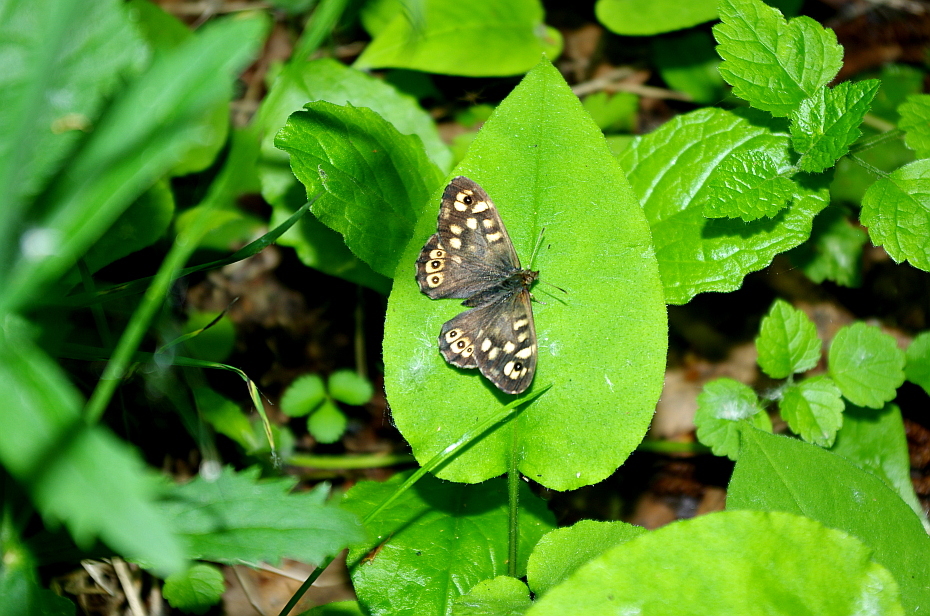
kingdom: Plantae
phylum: Tracheophyta
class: Magnoliopsida
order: Boraginales
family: Boraginaceae
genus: Pulmonaria
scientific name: Pulmonaria obscura
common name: Suffolk lungwort
